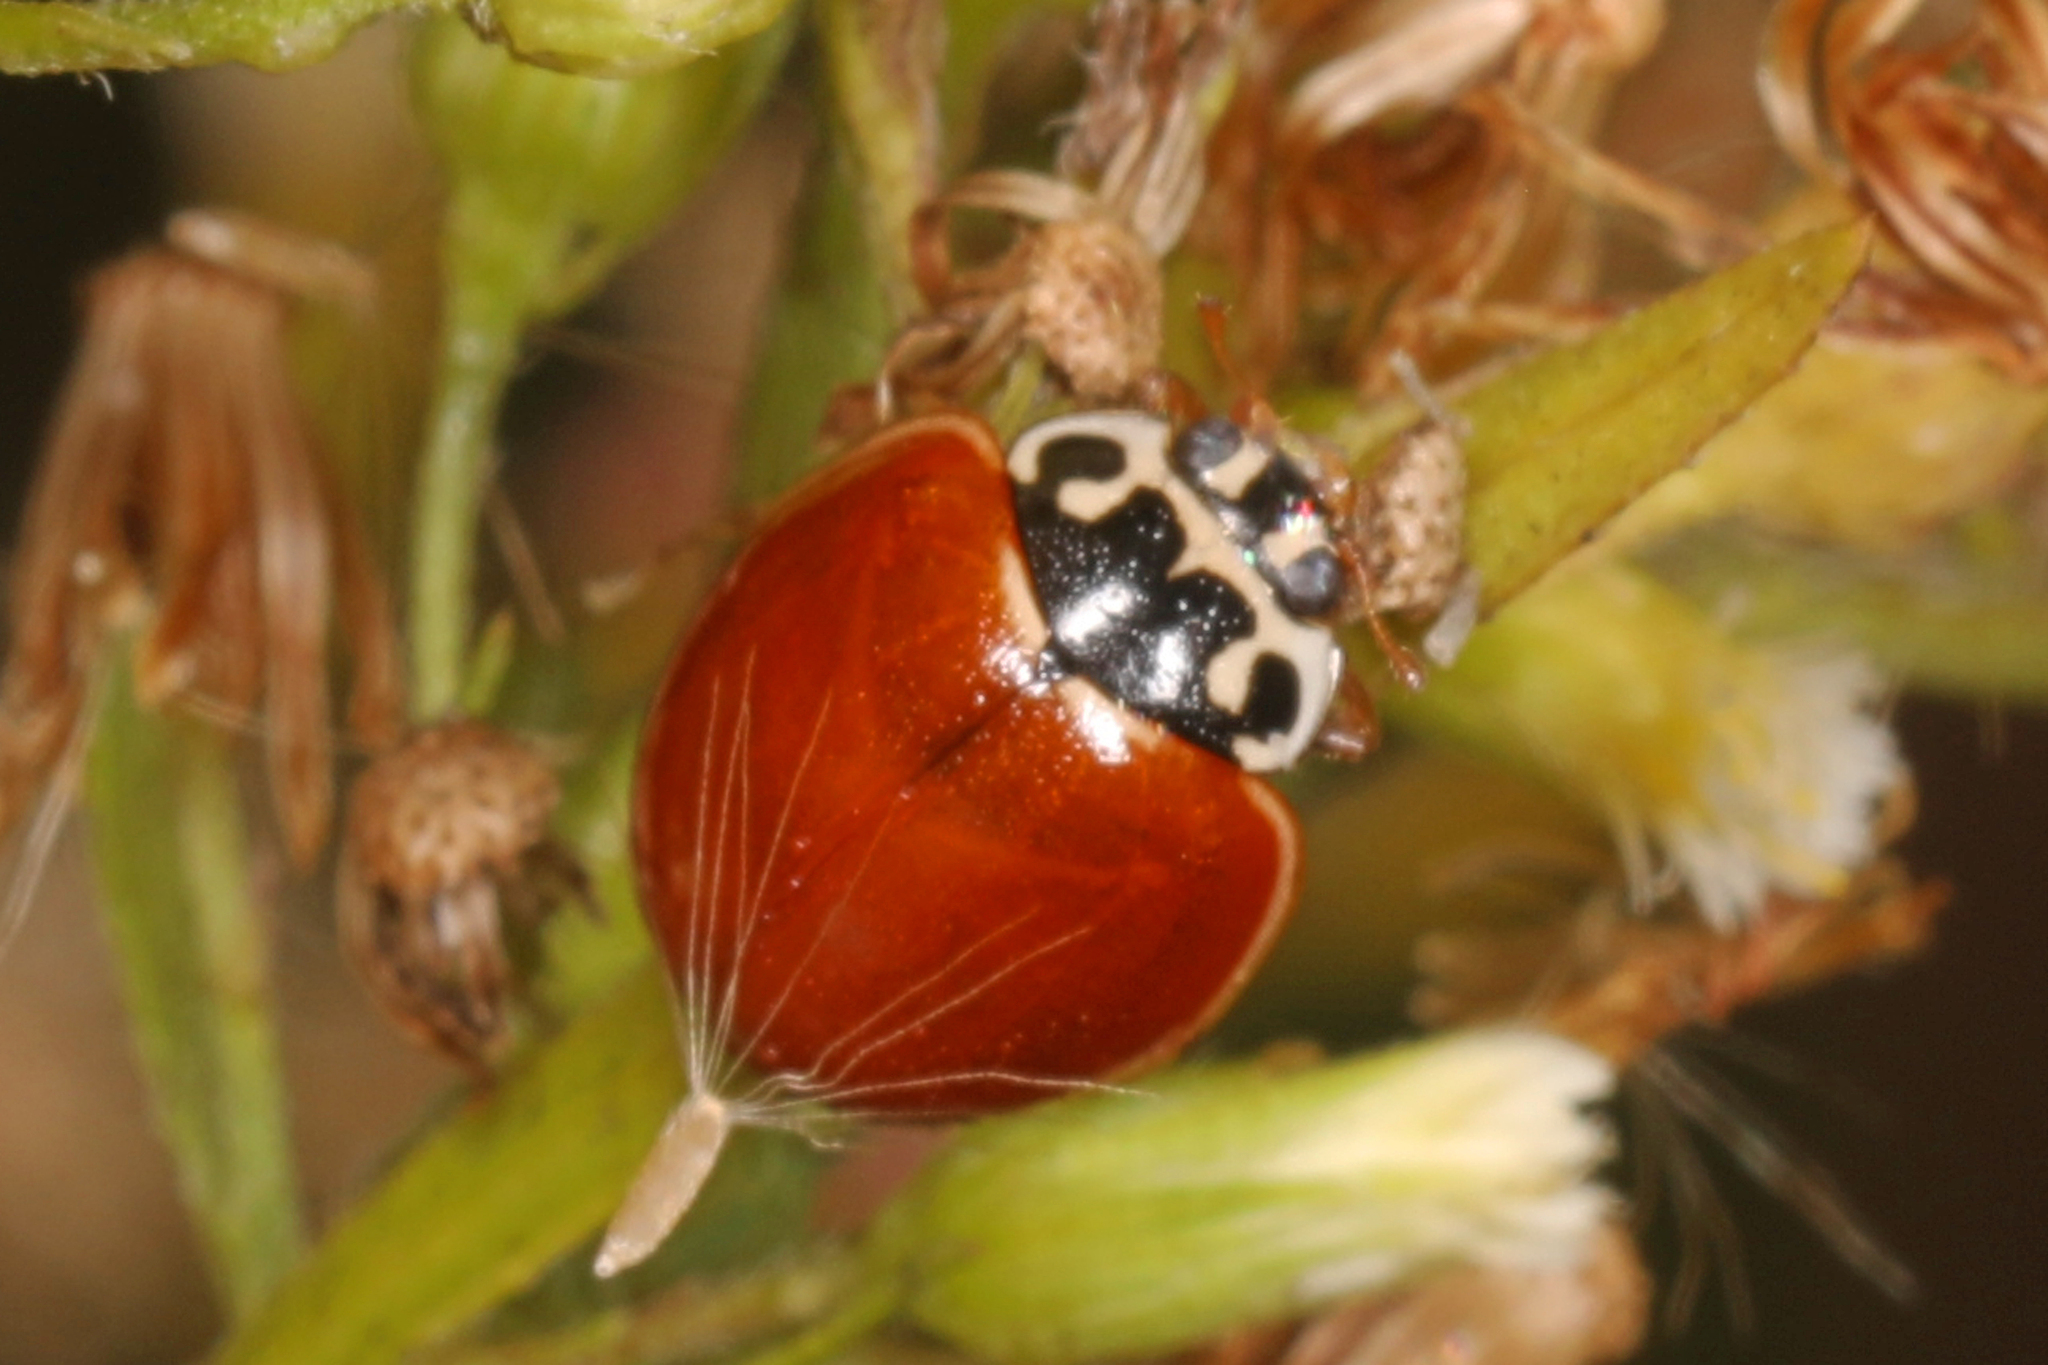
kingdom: Animalia
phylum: Arthropoda
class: Insecta
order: Coleoptera
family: Coccinellidae
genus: Cycloneda
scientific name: Cycloneda munda
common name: Polished lady beetle
